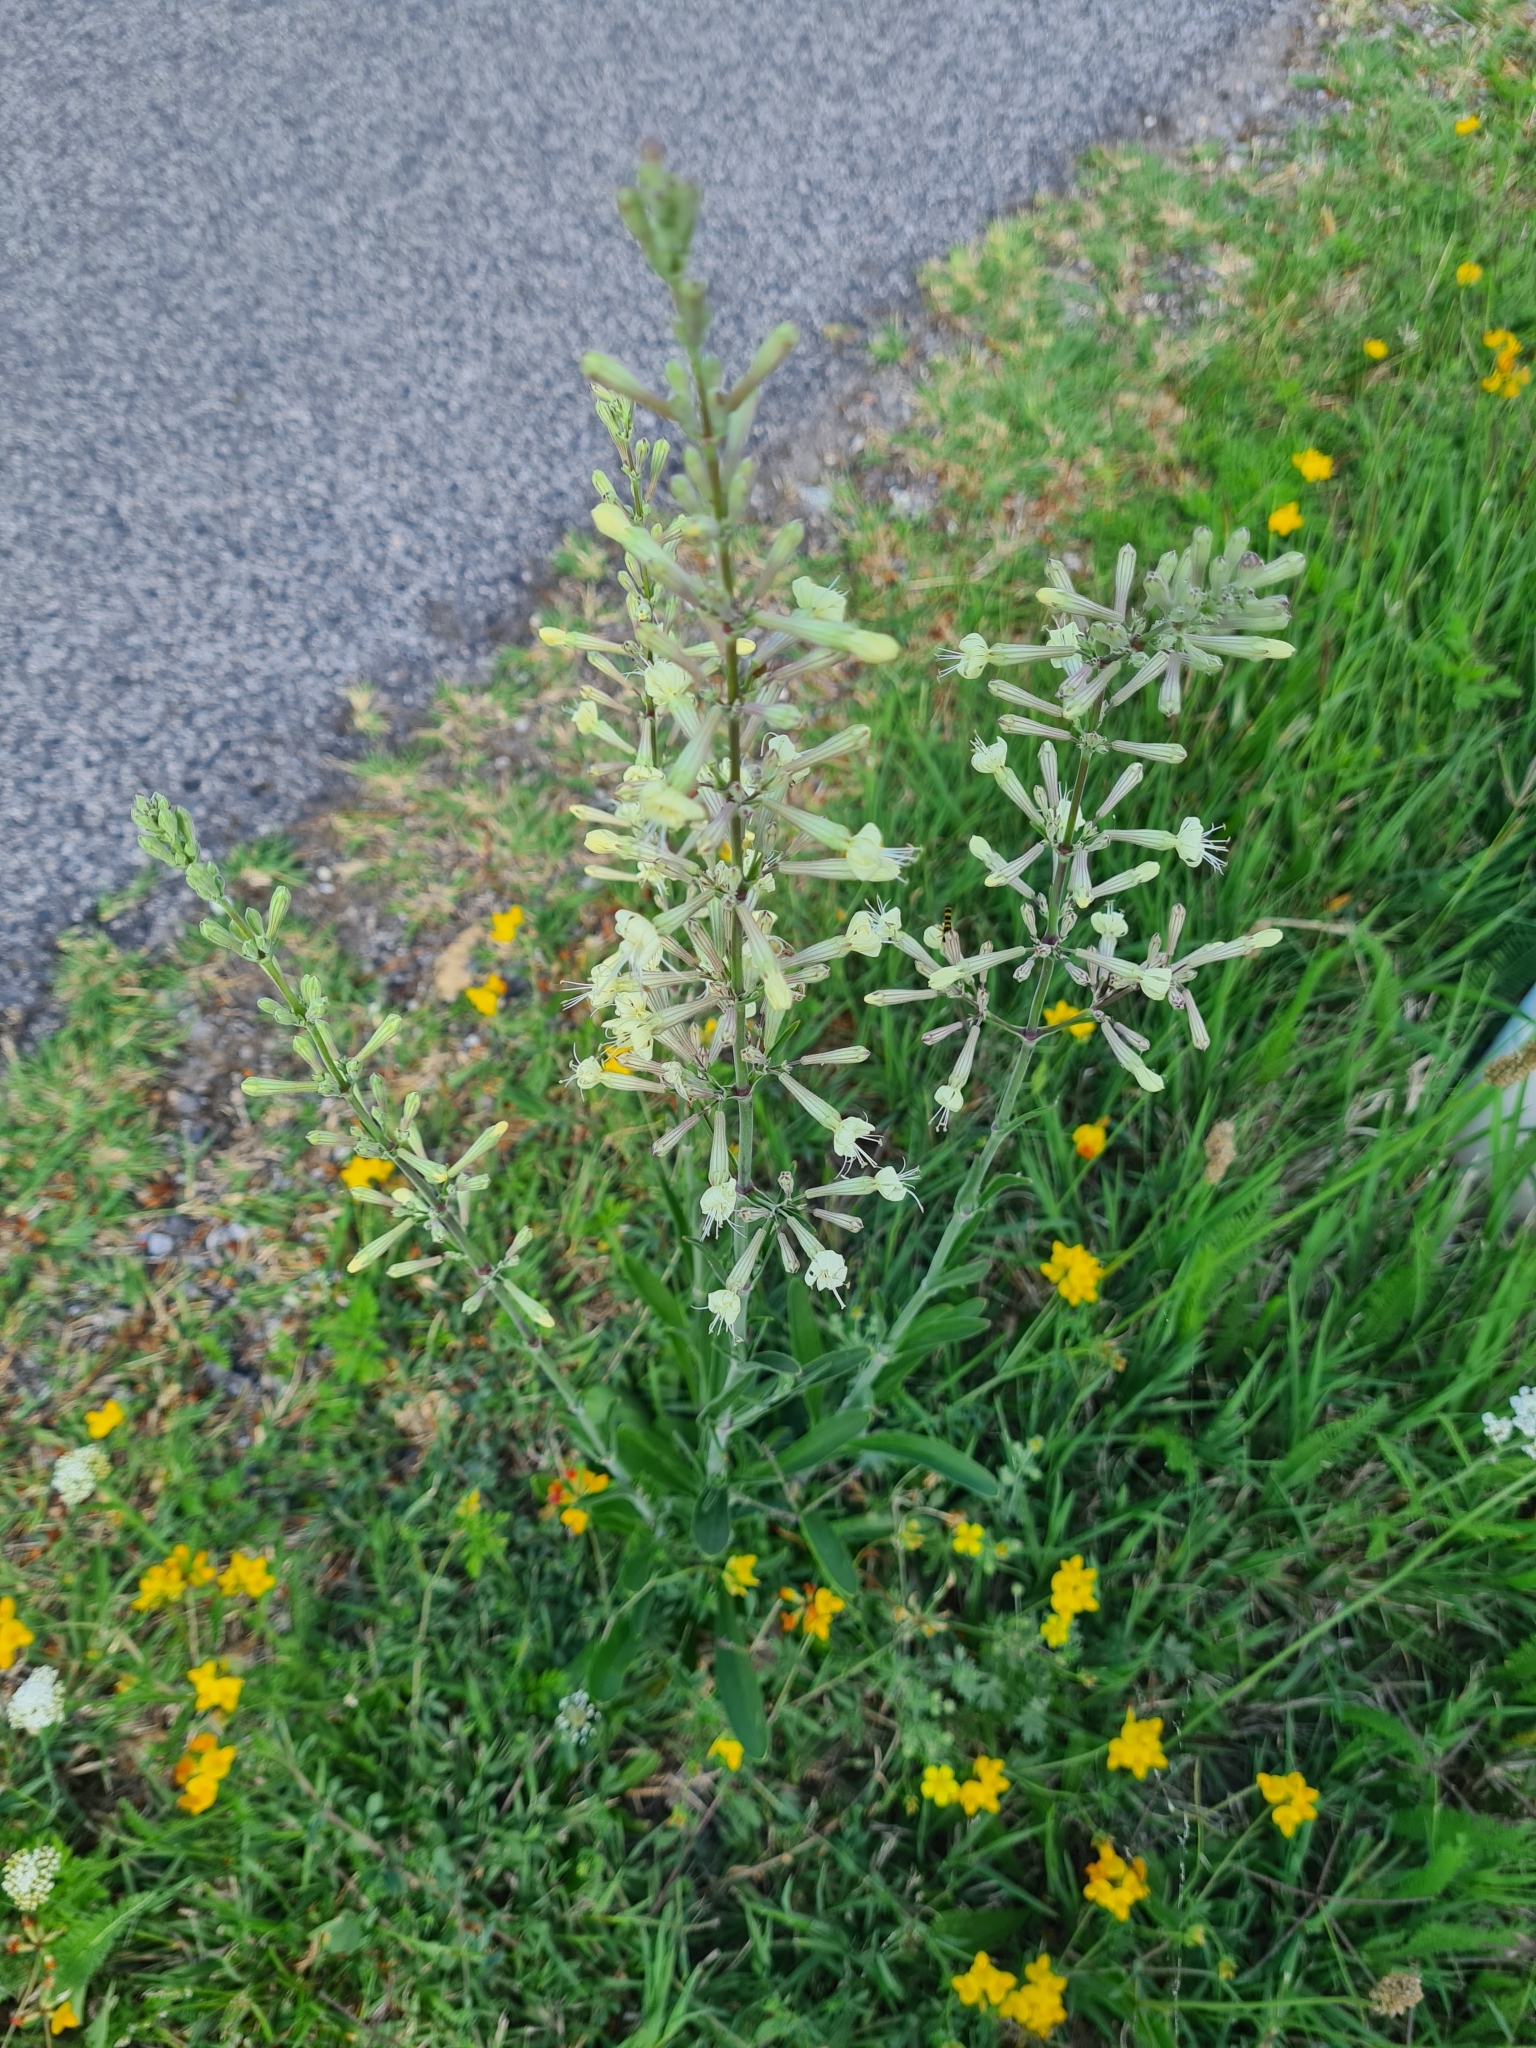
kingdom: Plantae
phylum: Tracheophyta
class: Magnoliopsida
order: Caryophyllales
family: Caryophyllaceae
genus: Silene
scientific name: Silene multiflora
